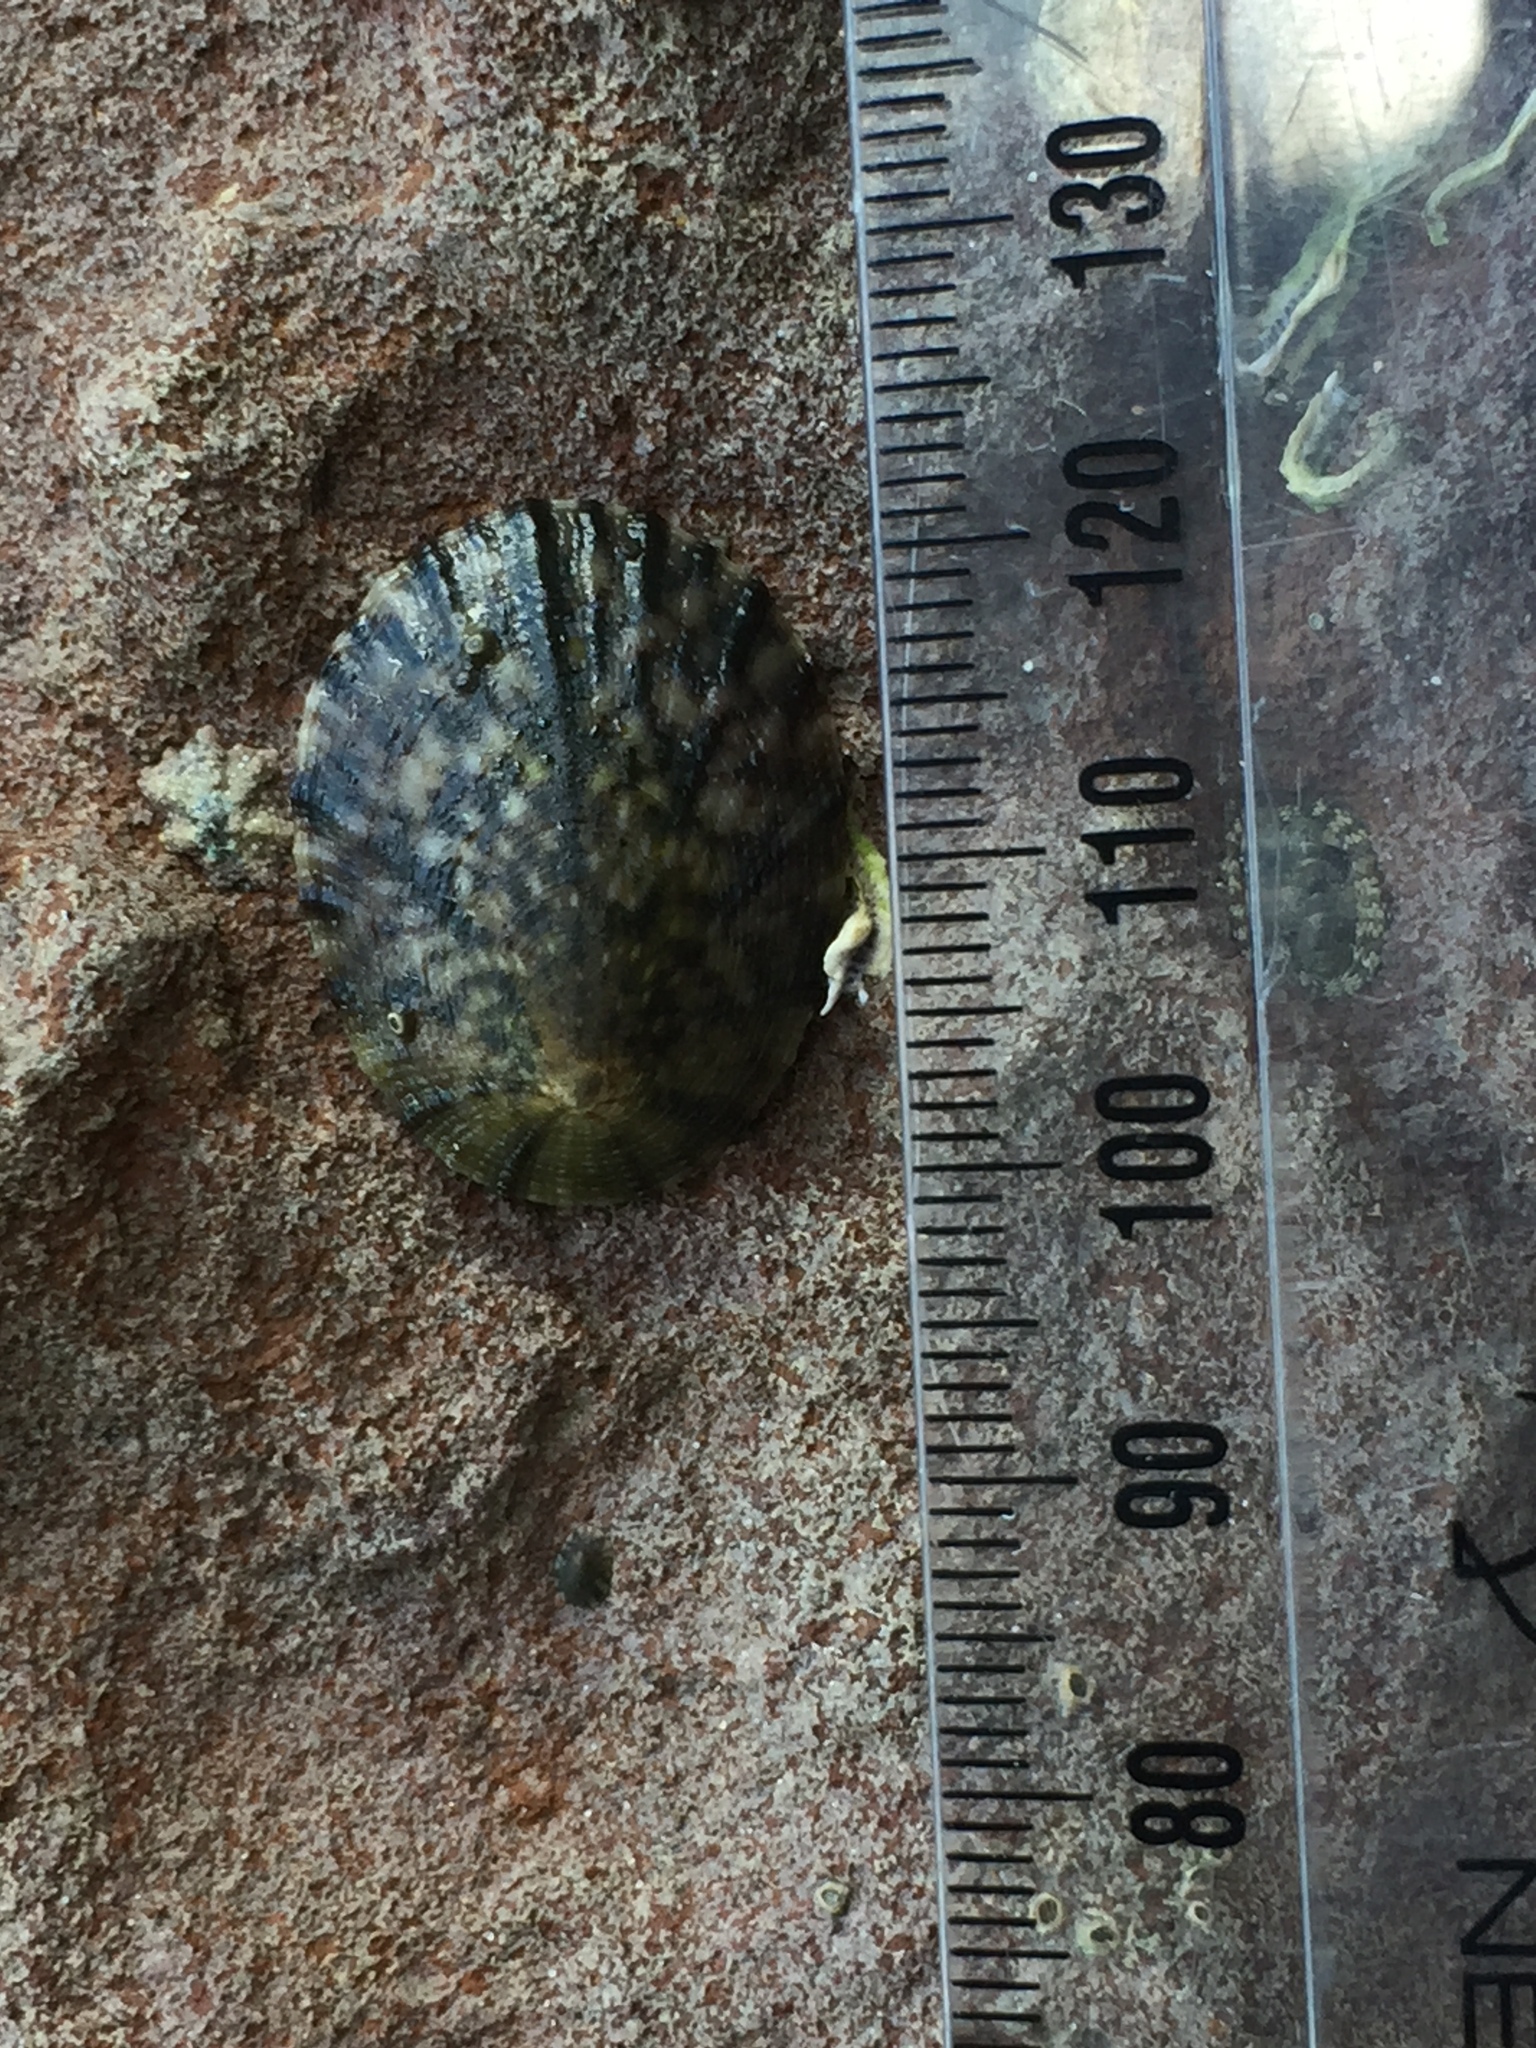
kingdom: Animalia
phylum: Mollusca
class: Gastropoda
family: Nacellidae
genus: Cellana
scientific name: Cellana radians
